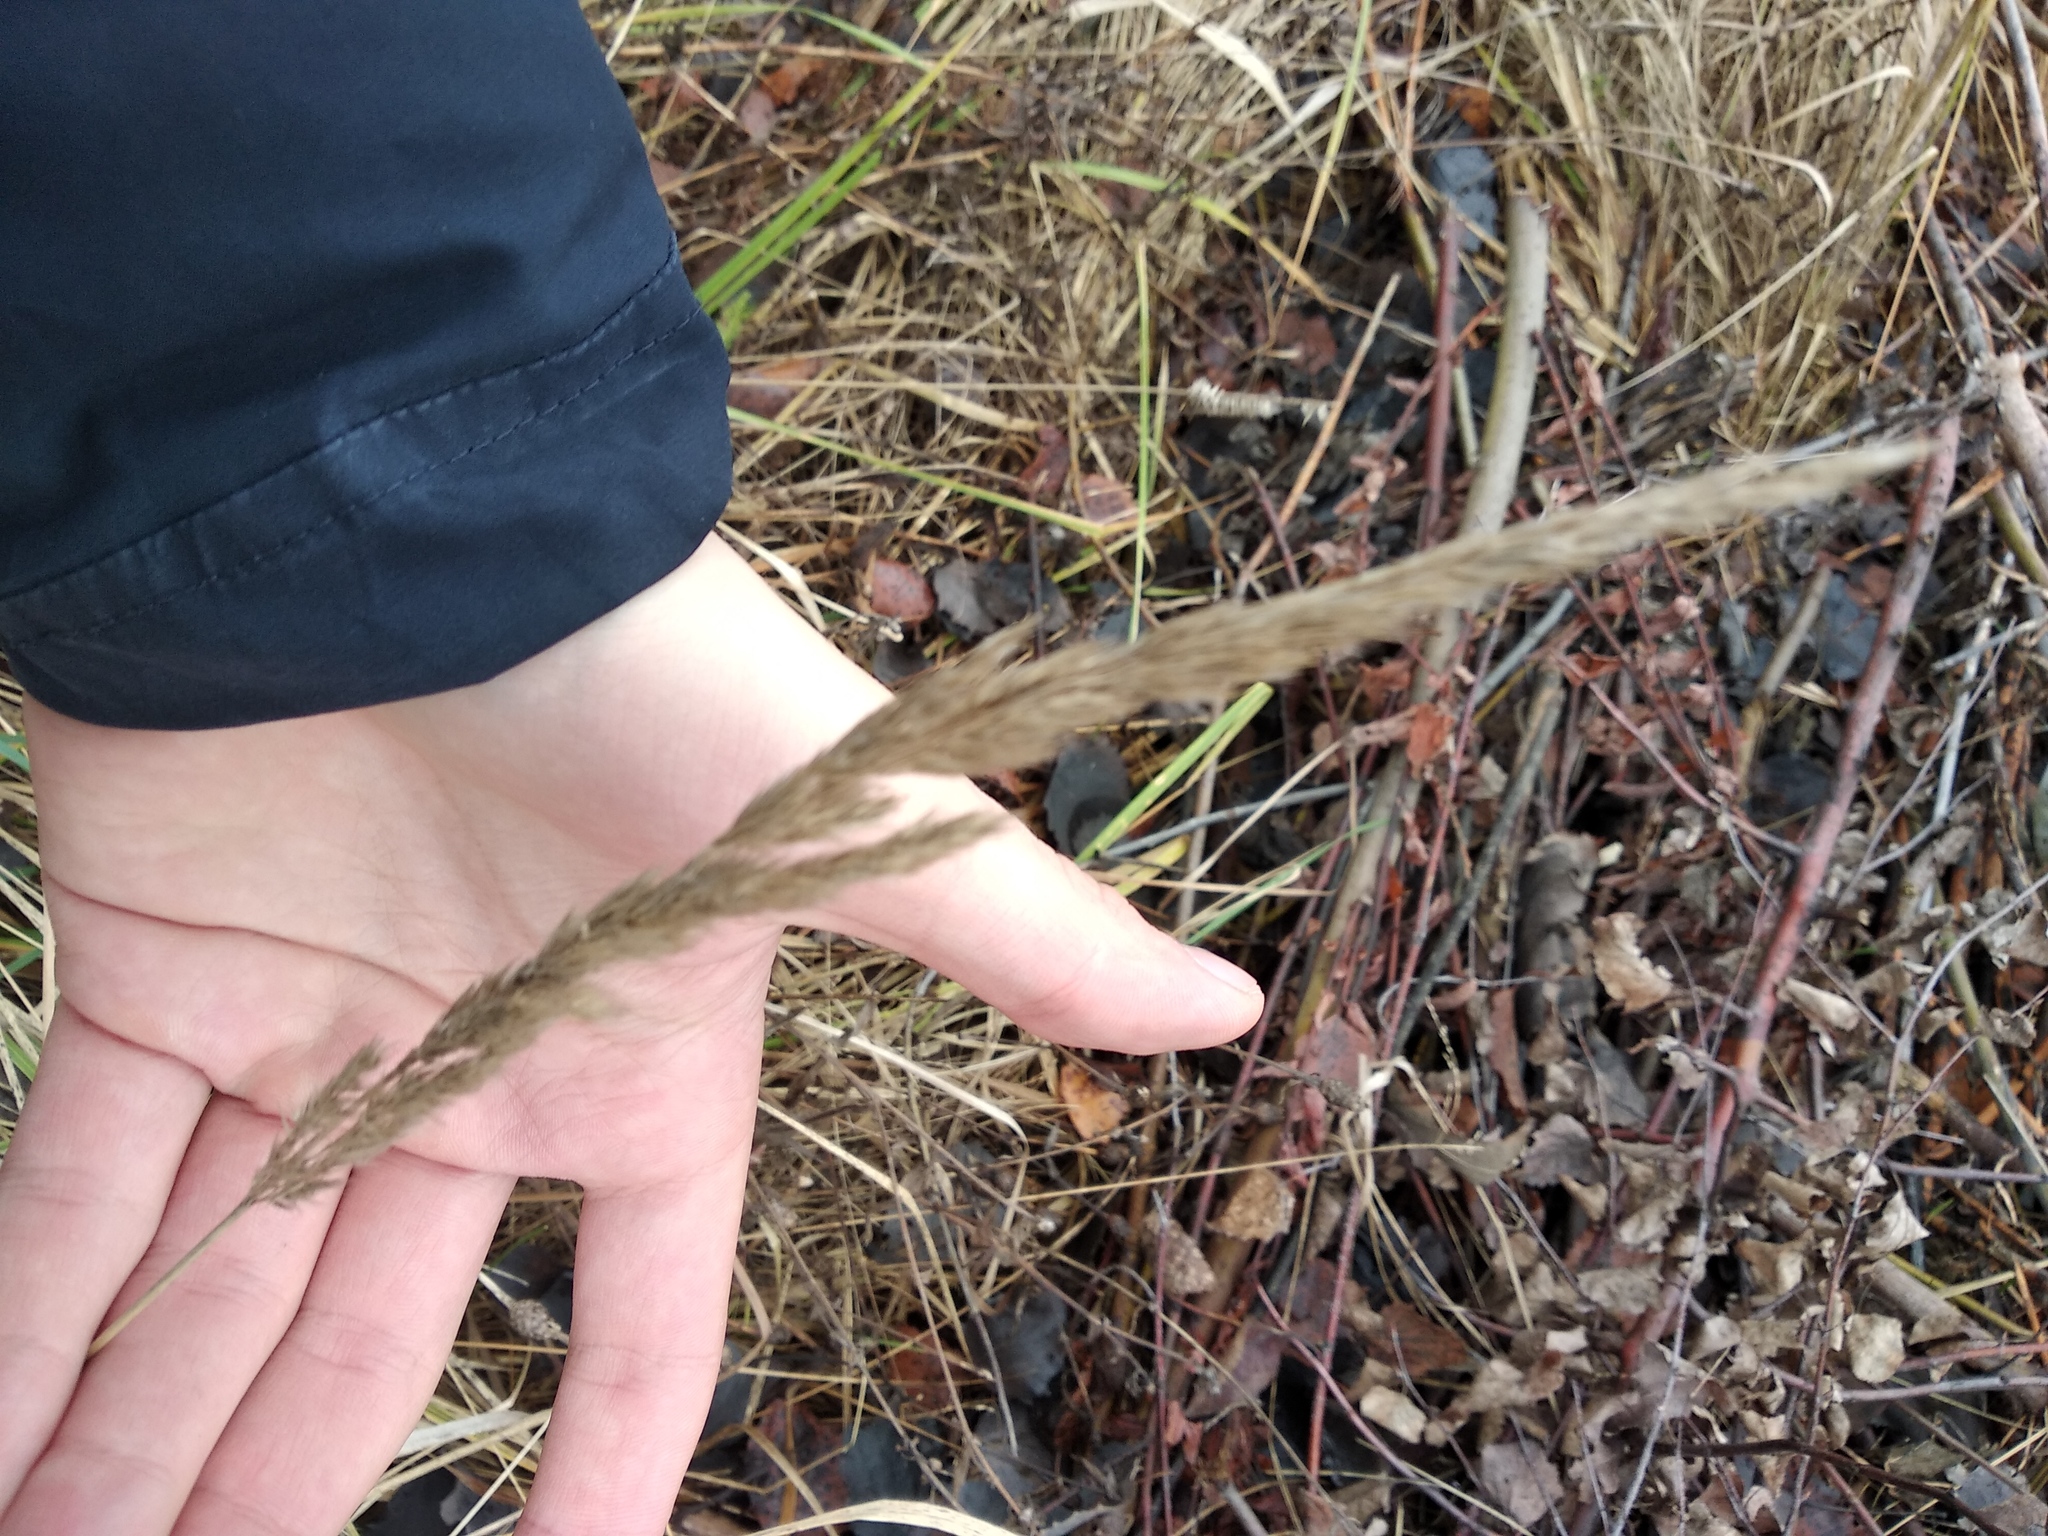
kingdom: Plantae
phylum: Tracheophyta
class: Liliopsida
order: Poales
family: Poaceae
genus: Calamagrostis
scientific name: Calamagrostis epigejos
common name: Wood small-reed
